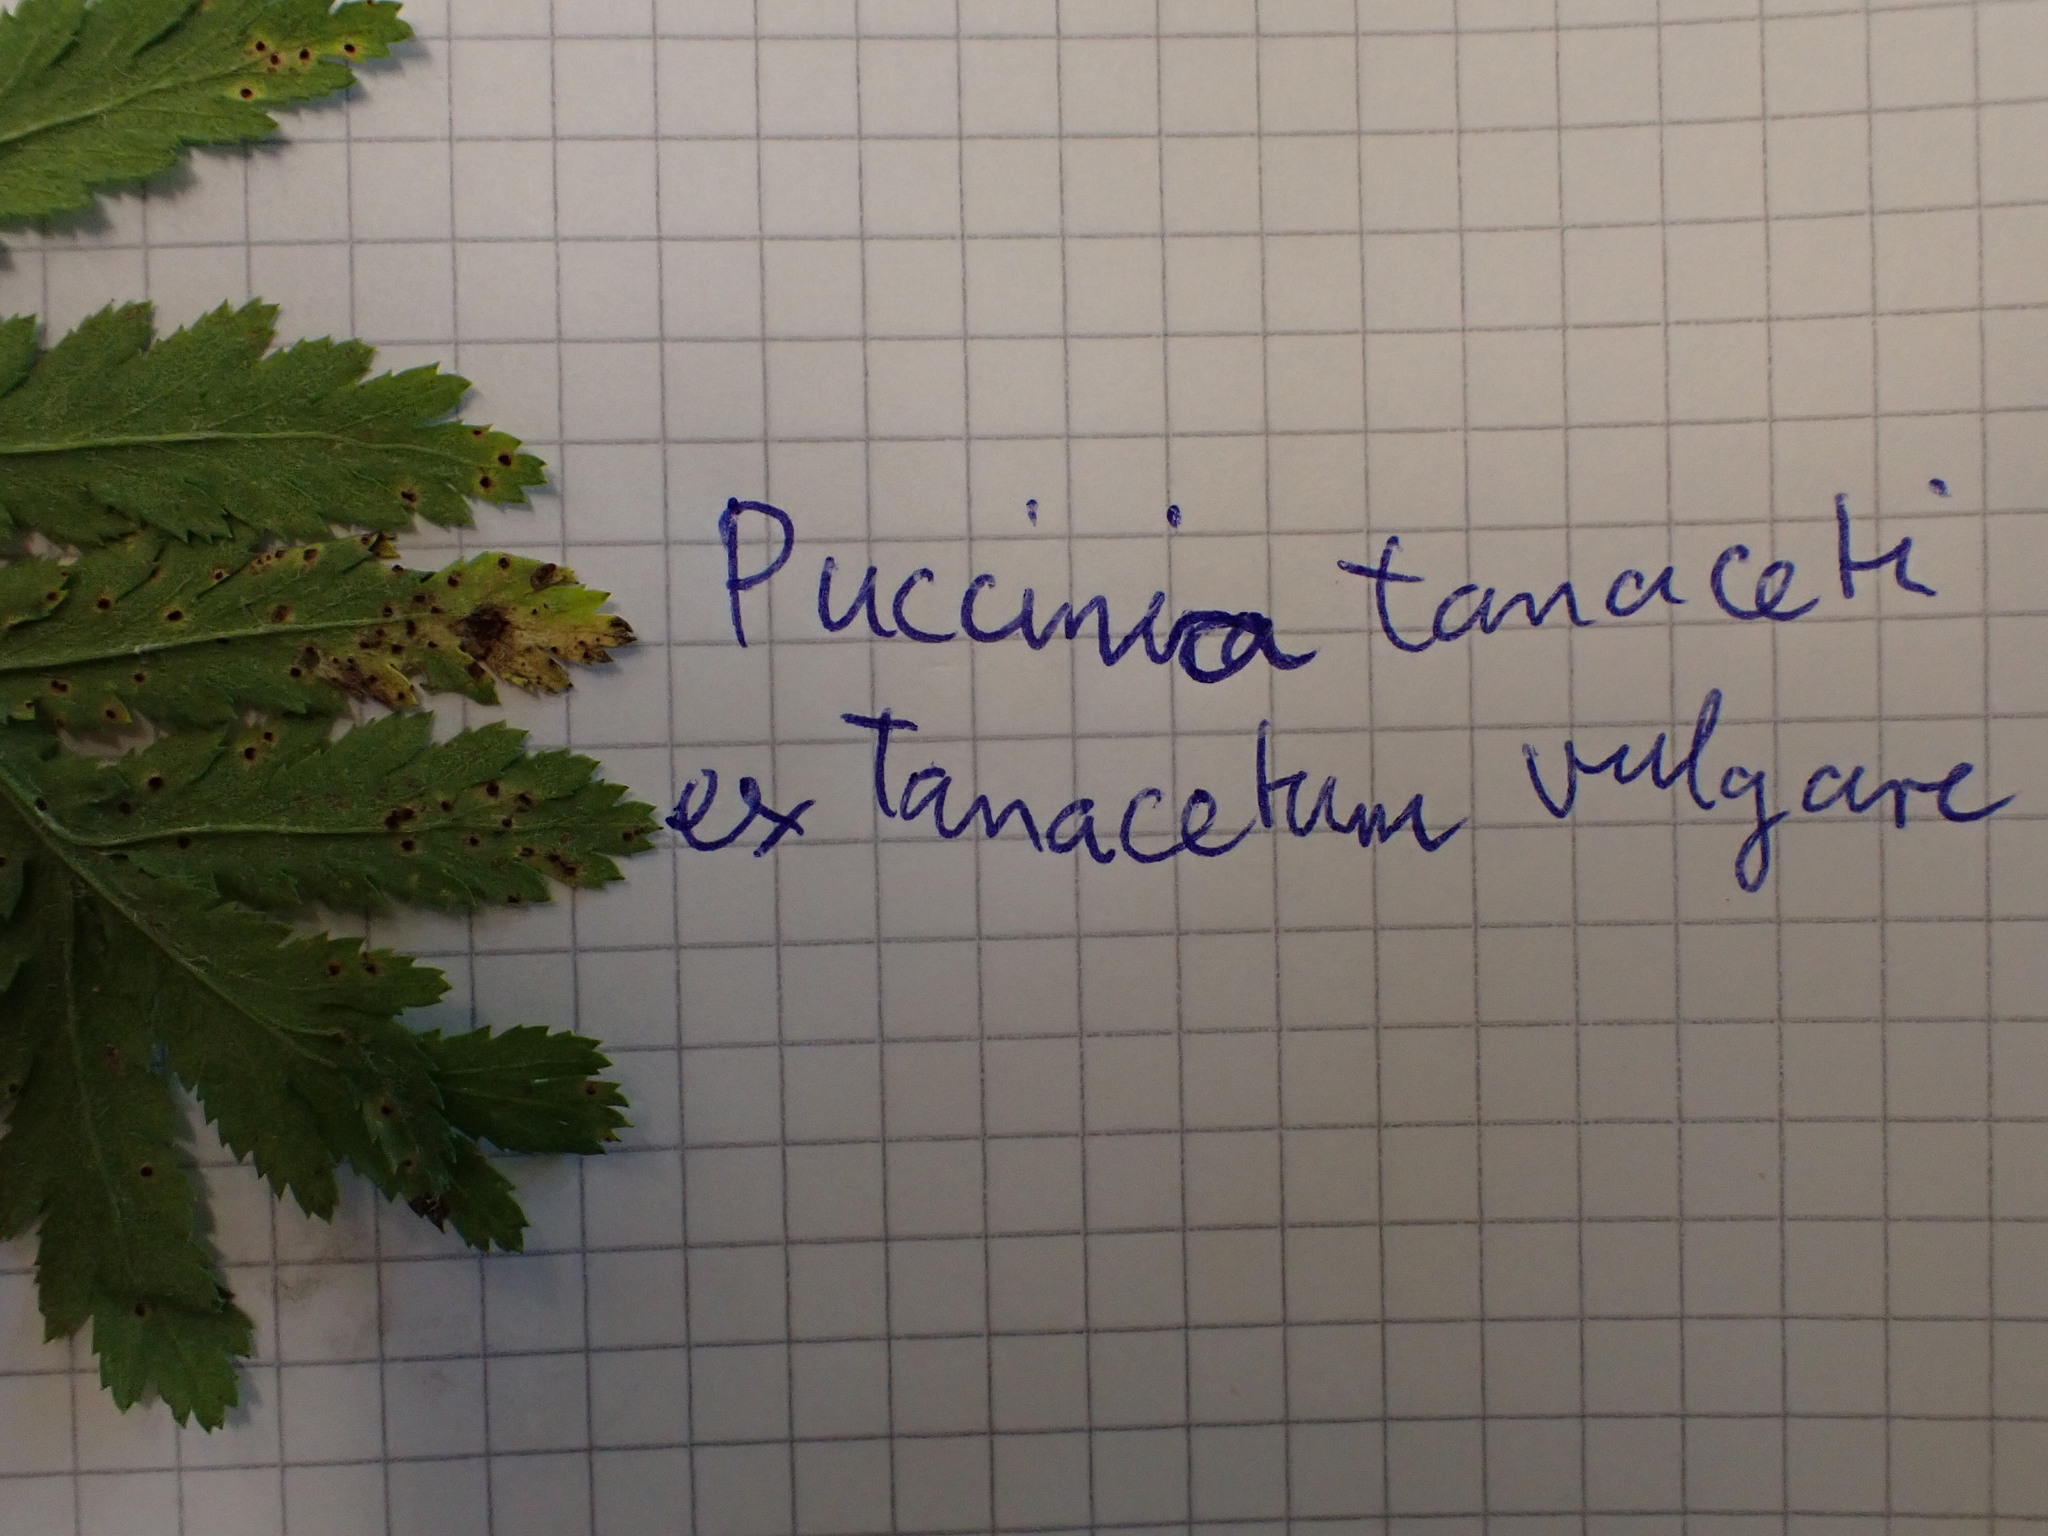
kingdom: Fungi
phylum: Basidiomycota
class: Pucciniomycetes
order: Pucciniales
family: Pucciniaceae
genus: Puccinia
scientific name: Puccinia tanaceti
